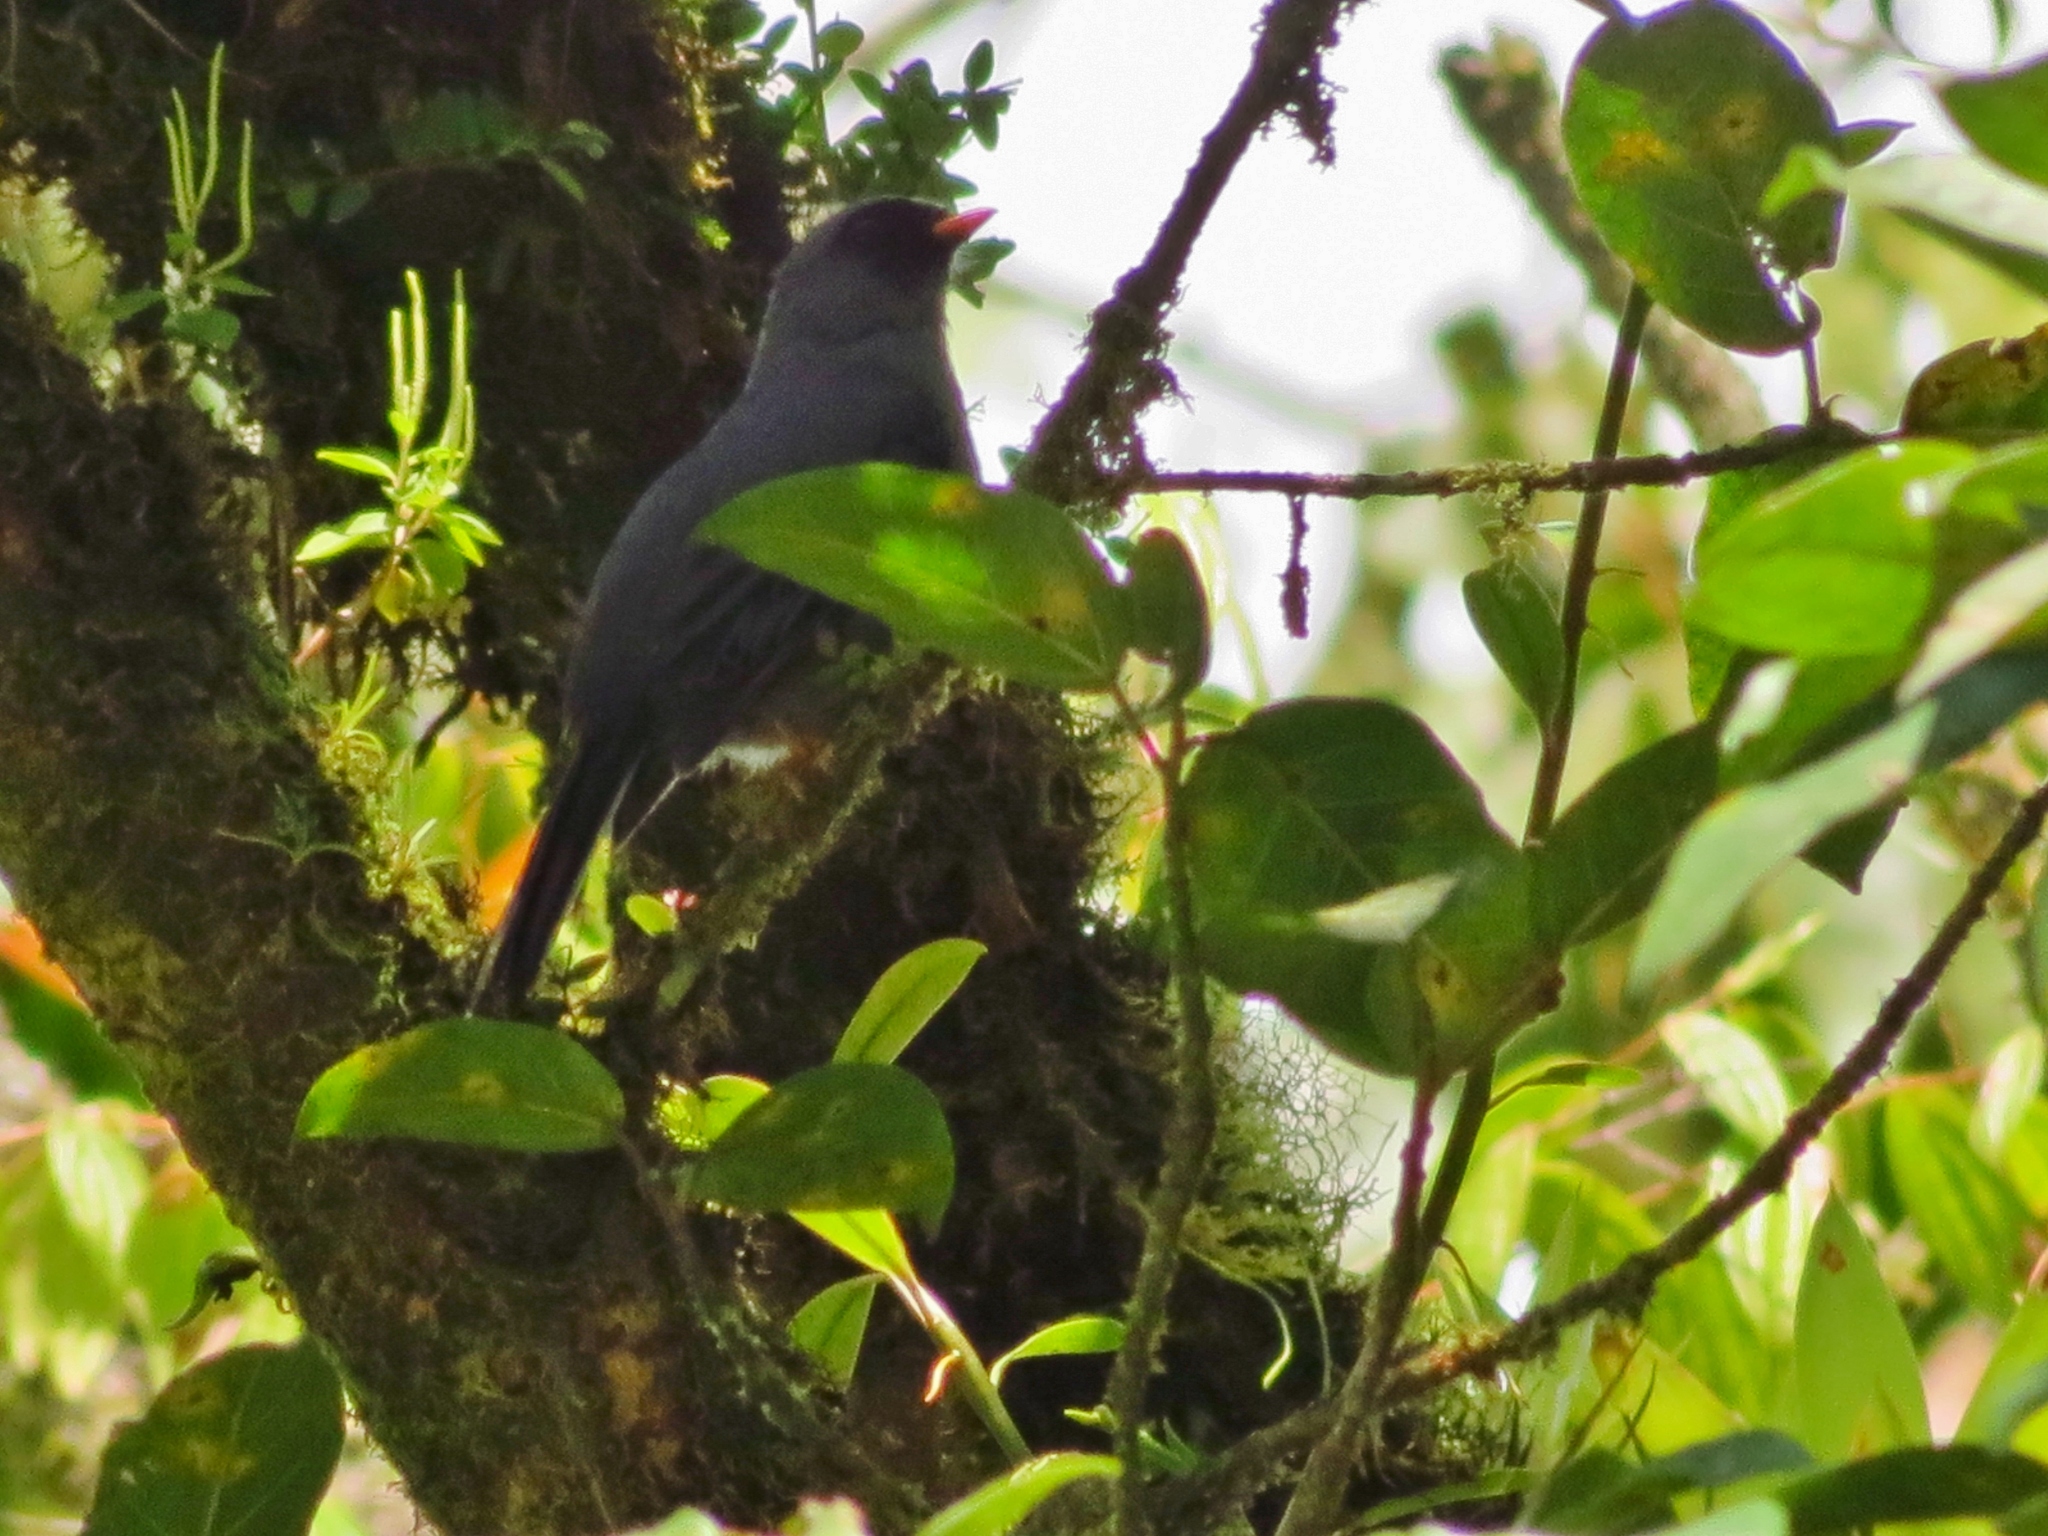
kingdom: Animalia
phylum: Chordata
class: Aves
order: Passeriformes
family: Turdidae
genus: Myadestes
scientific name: Myadestes melanops
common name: Black-faced solitaire
